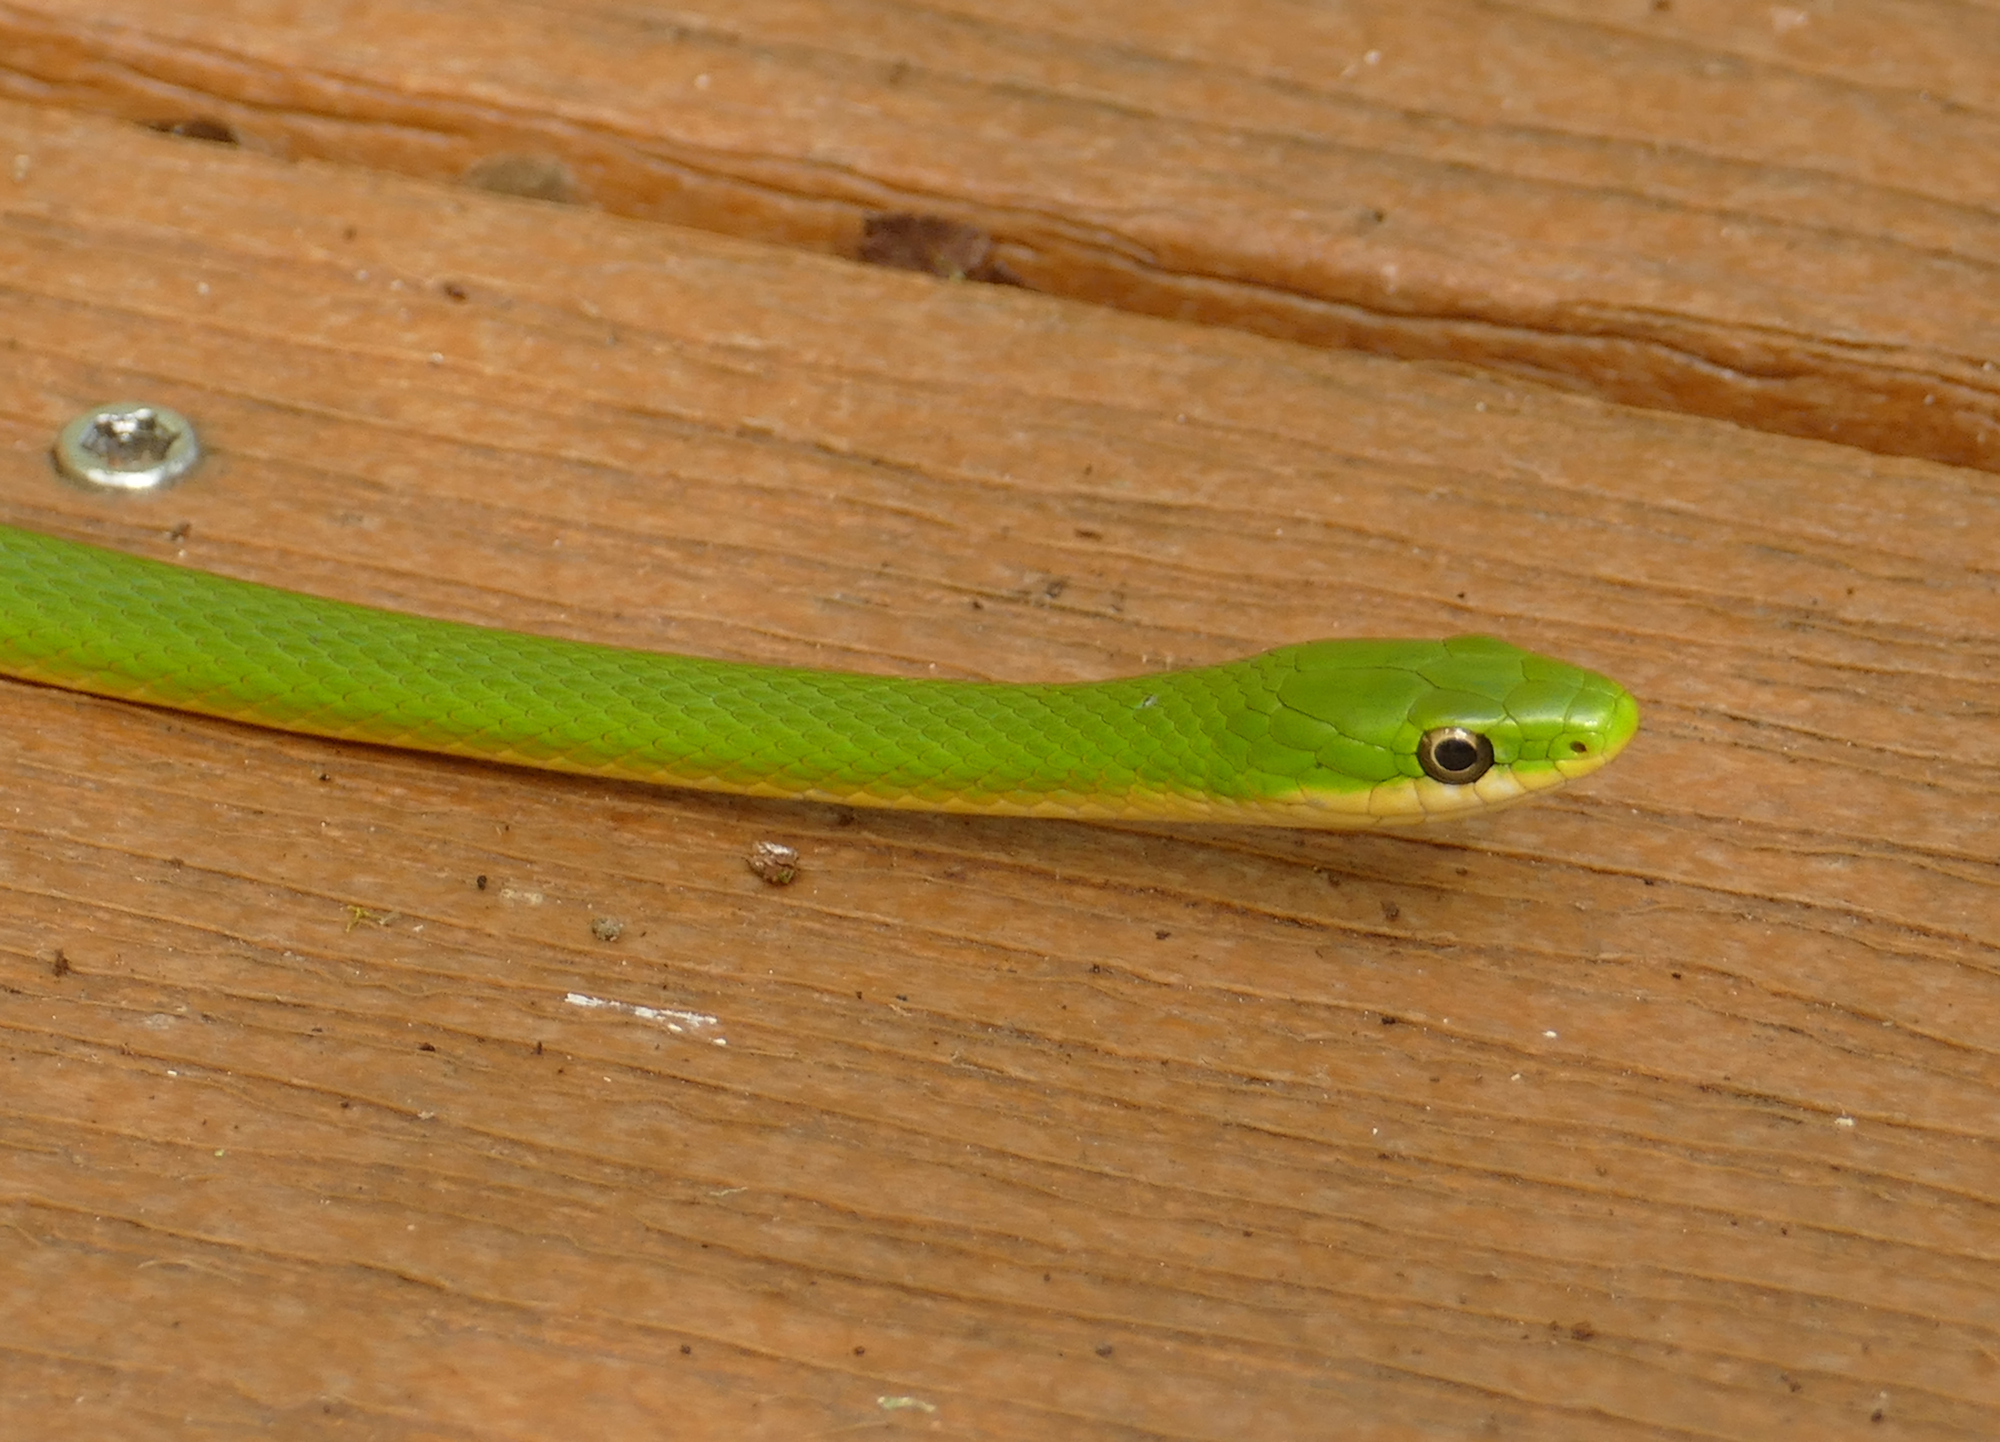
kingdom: Animalia
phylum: Chordata
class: Squamata
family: Colubridae
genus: Opheodrys
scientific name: Opheodrys aestivus
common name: Rough greensnake
